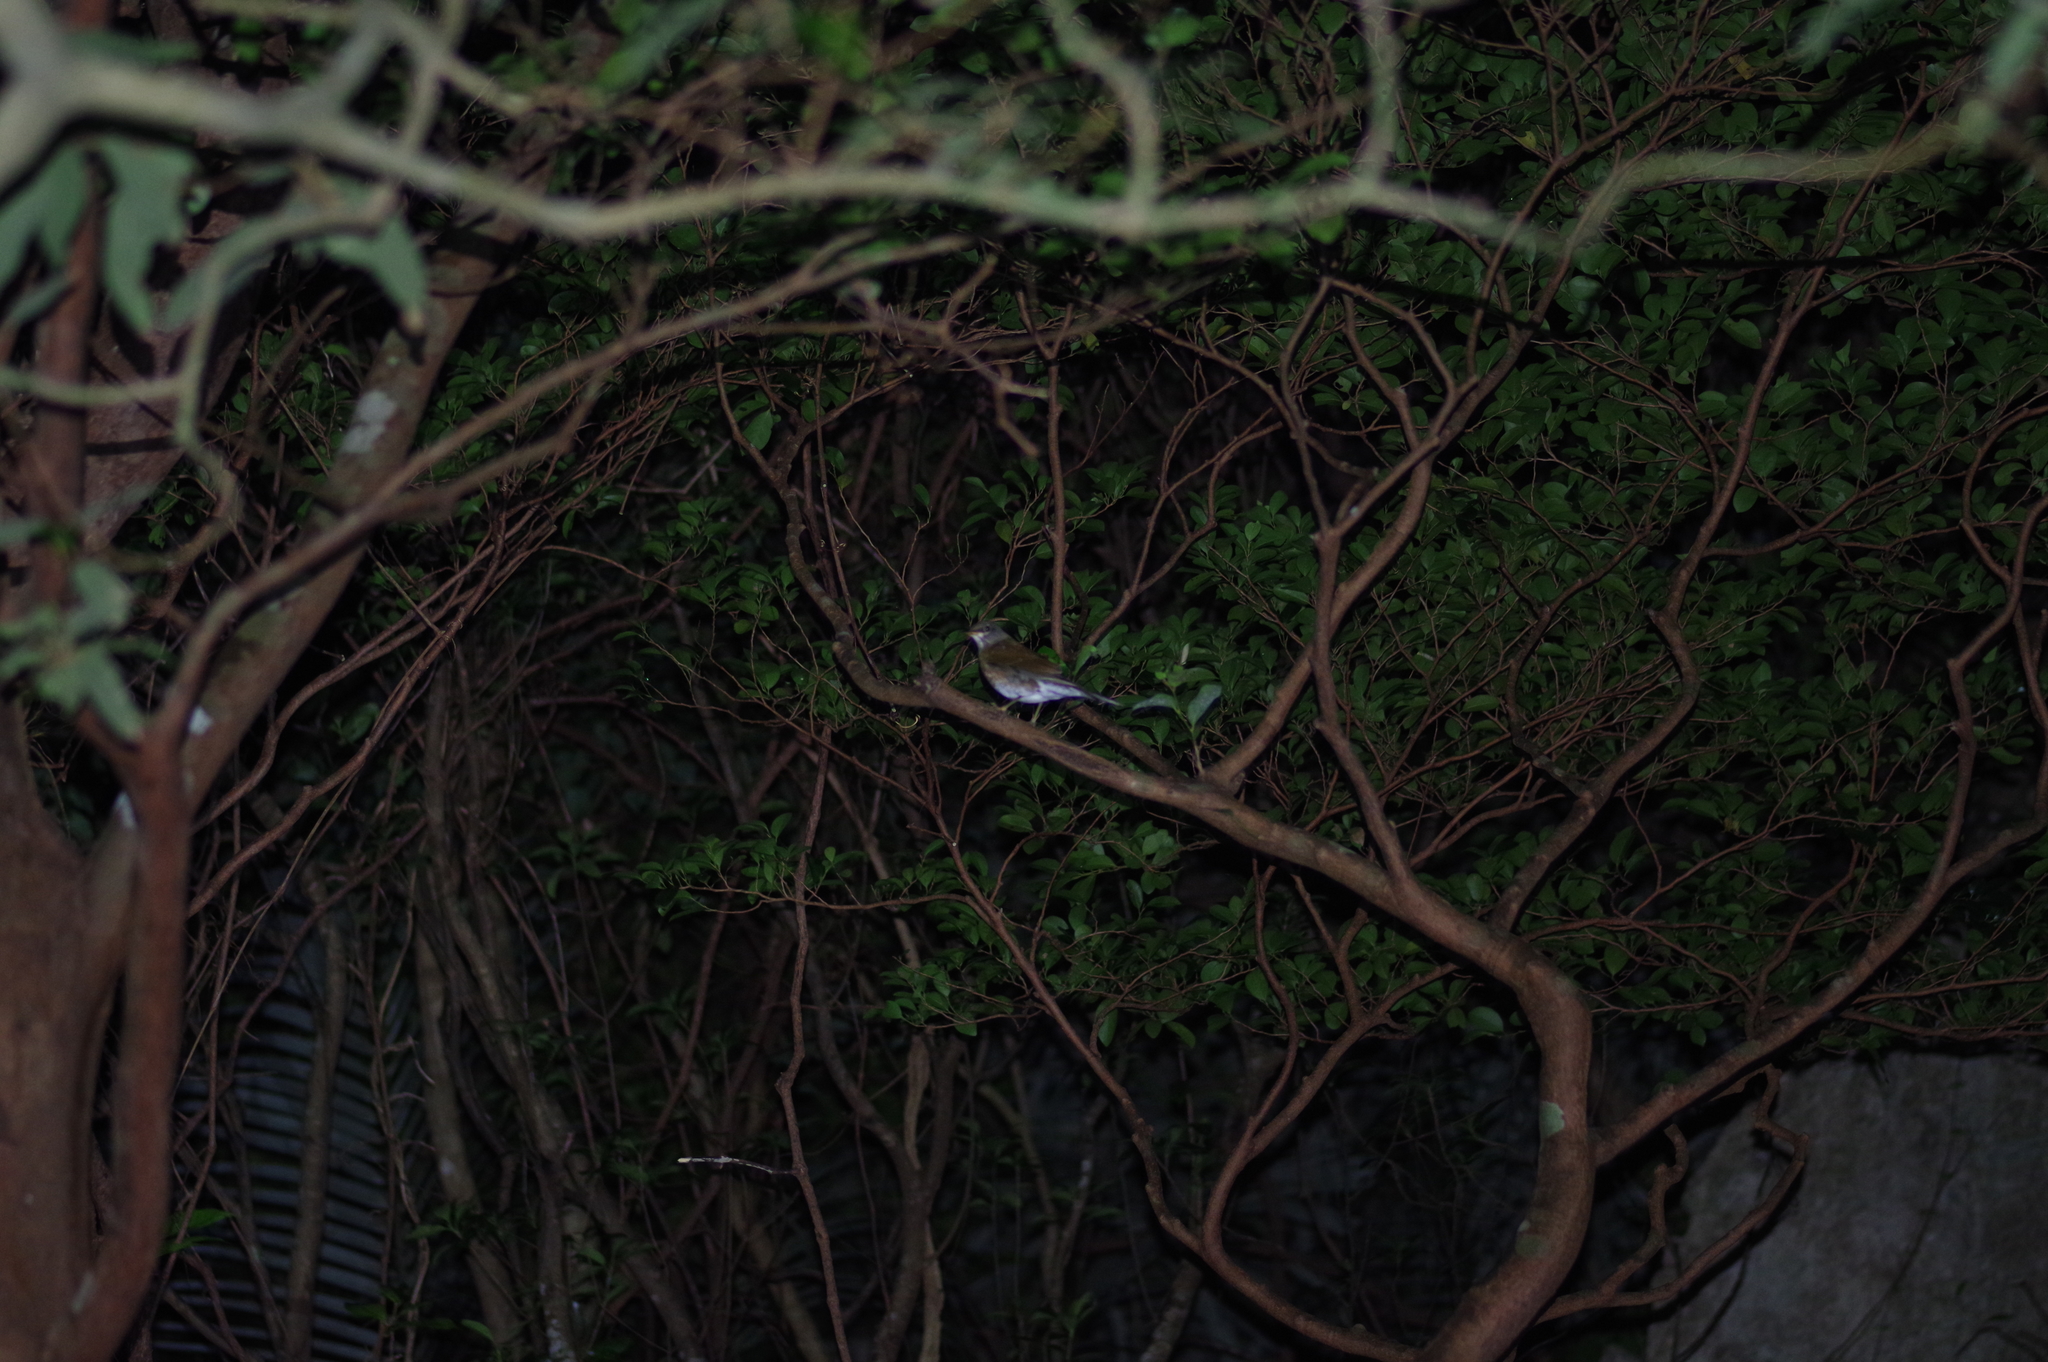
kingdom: Animalia
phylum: Chordata
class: Aves
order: Passeriformes
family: Turdidae
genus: Turdus
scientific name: Turdus pallidus
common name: Pale thrush
